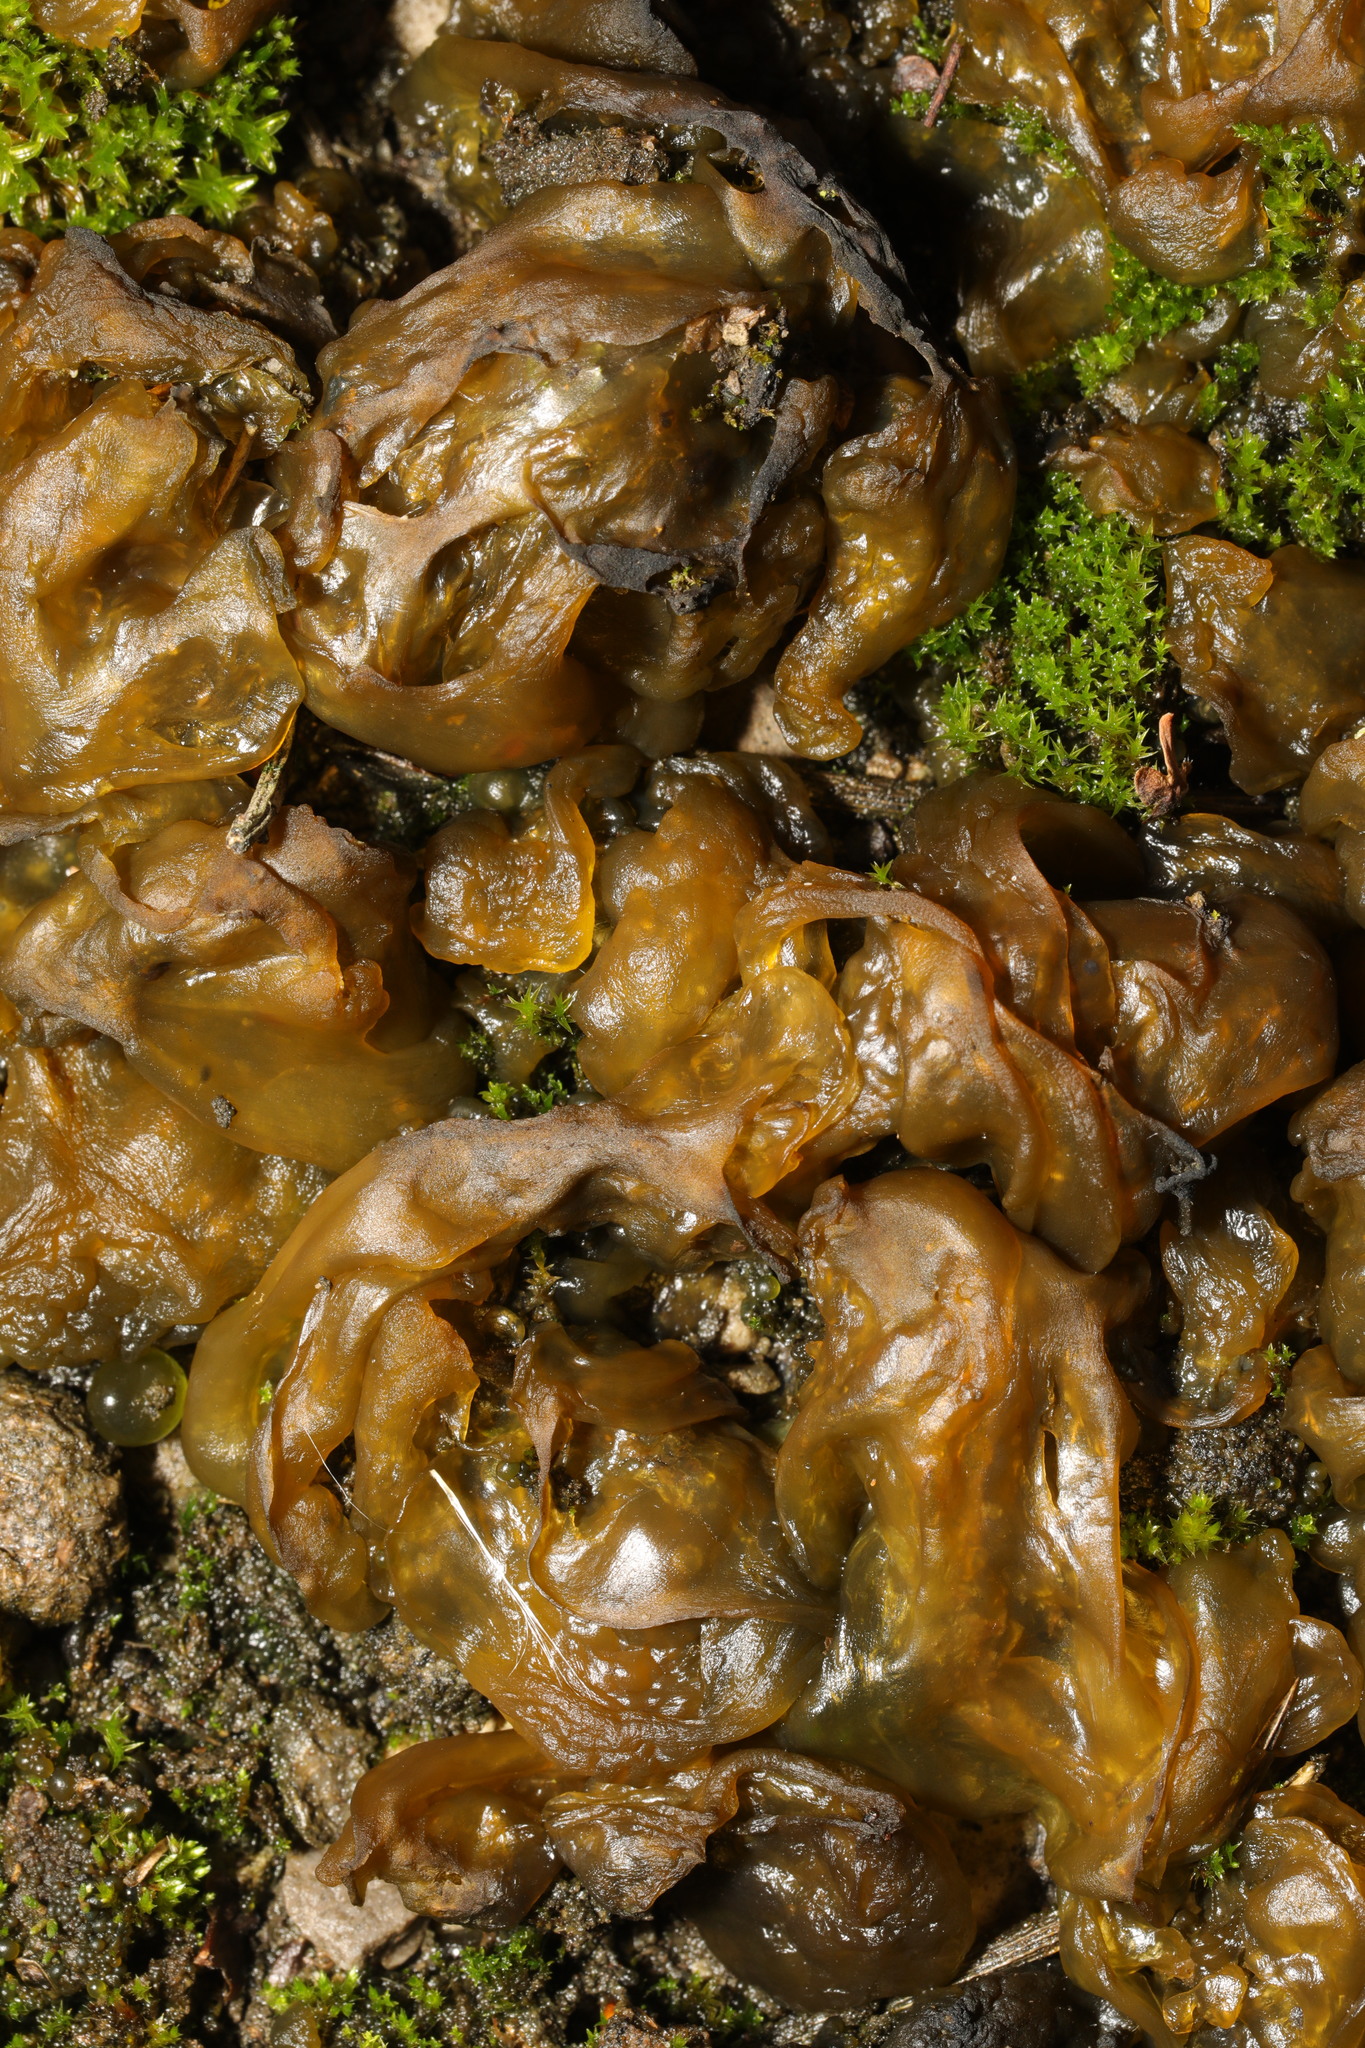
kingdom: Bacteria
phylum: Cyanobacteria
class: Cyanobacteriia
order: Cyanobacteriales
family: Nostocaceae
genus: Nostoc
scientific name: Nostoc commune
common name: Star jelly
